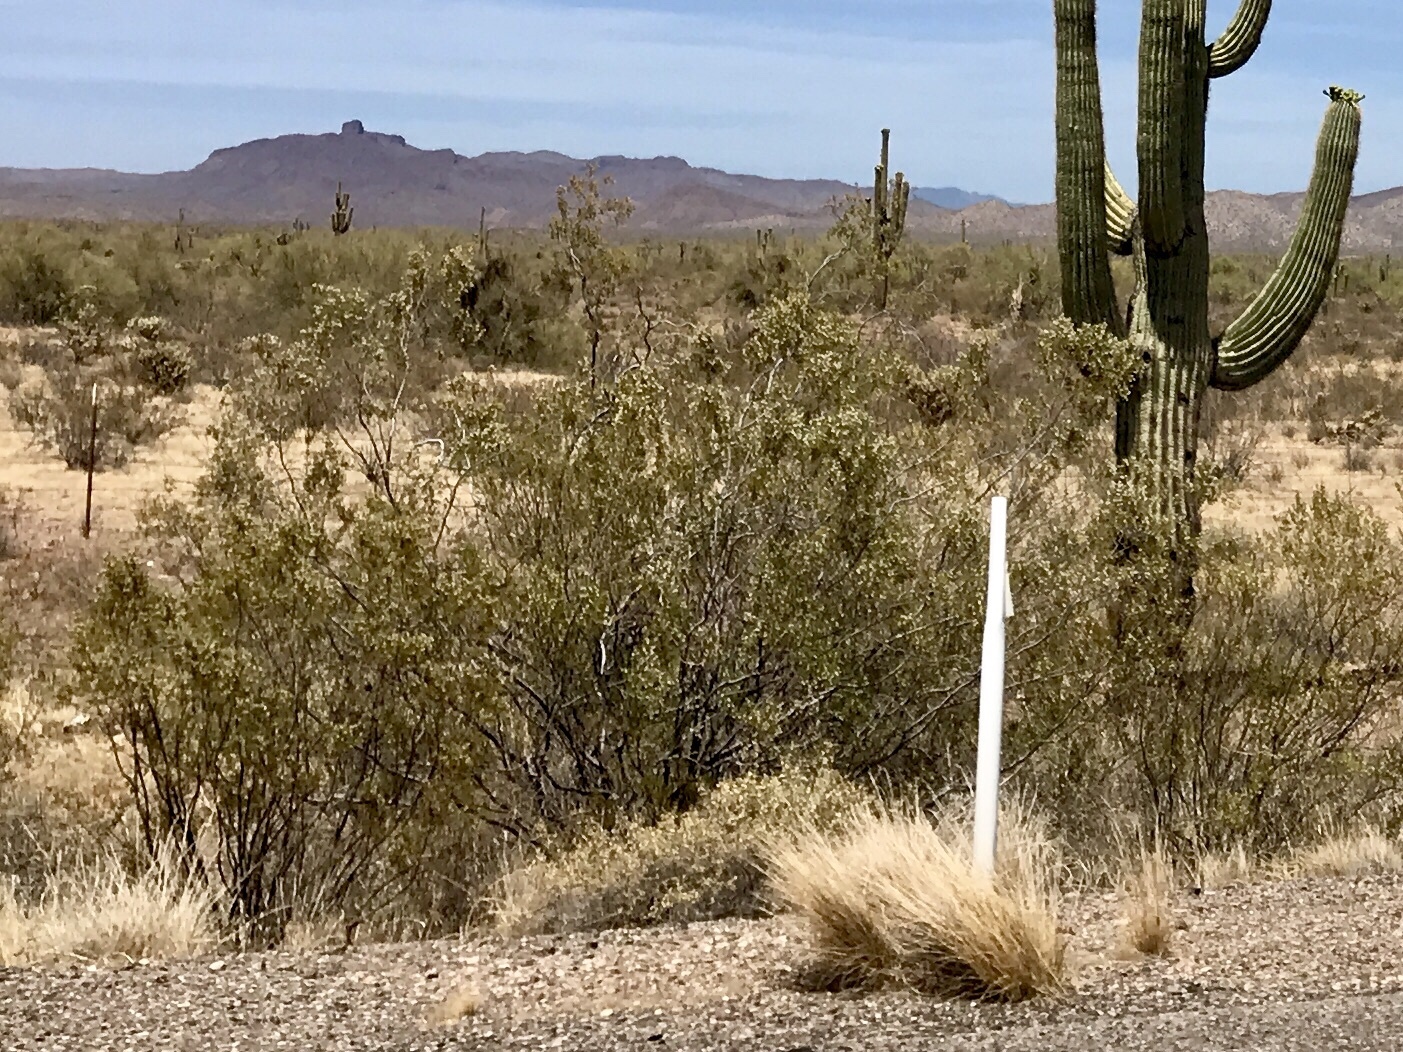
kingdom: Plantae
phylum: Tracheophyta
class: Magnoliopsida
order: Zygophyllales
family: Zygophyllaceae
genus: Larrea
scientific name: Larrea tridentata
